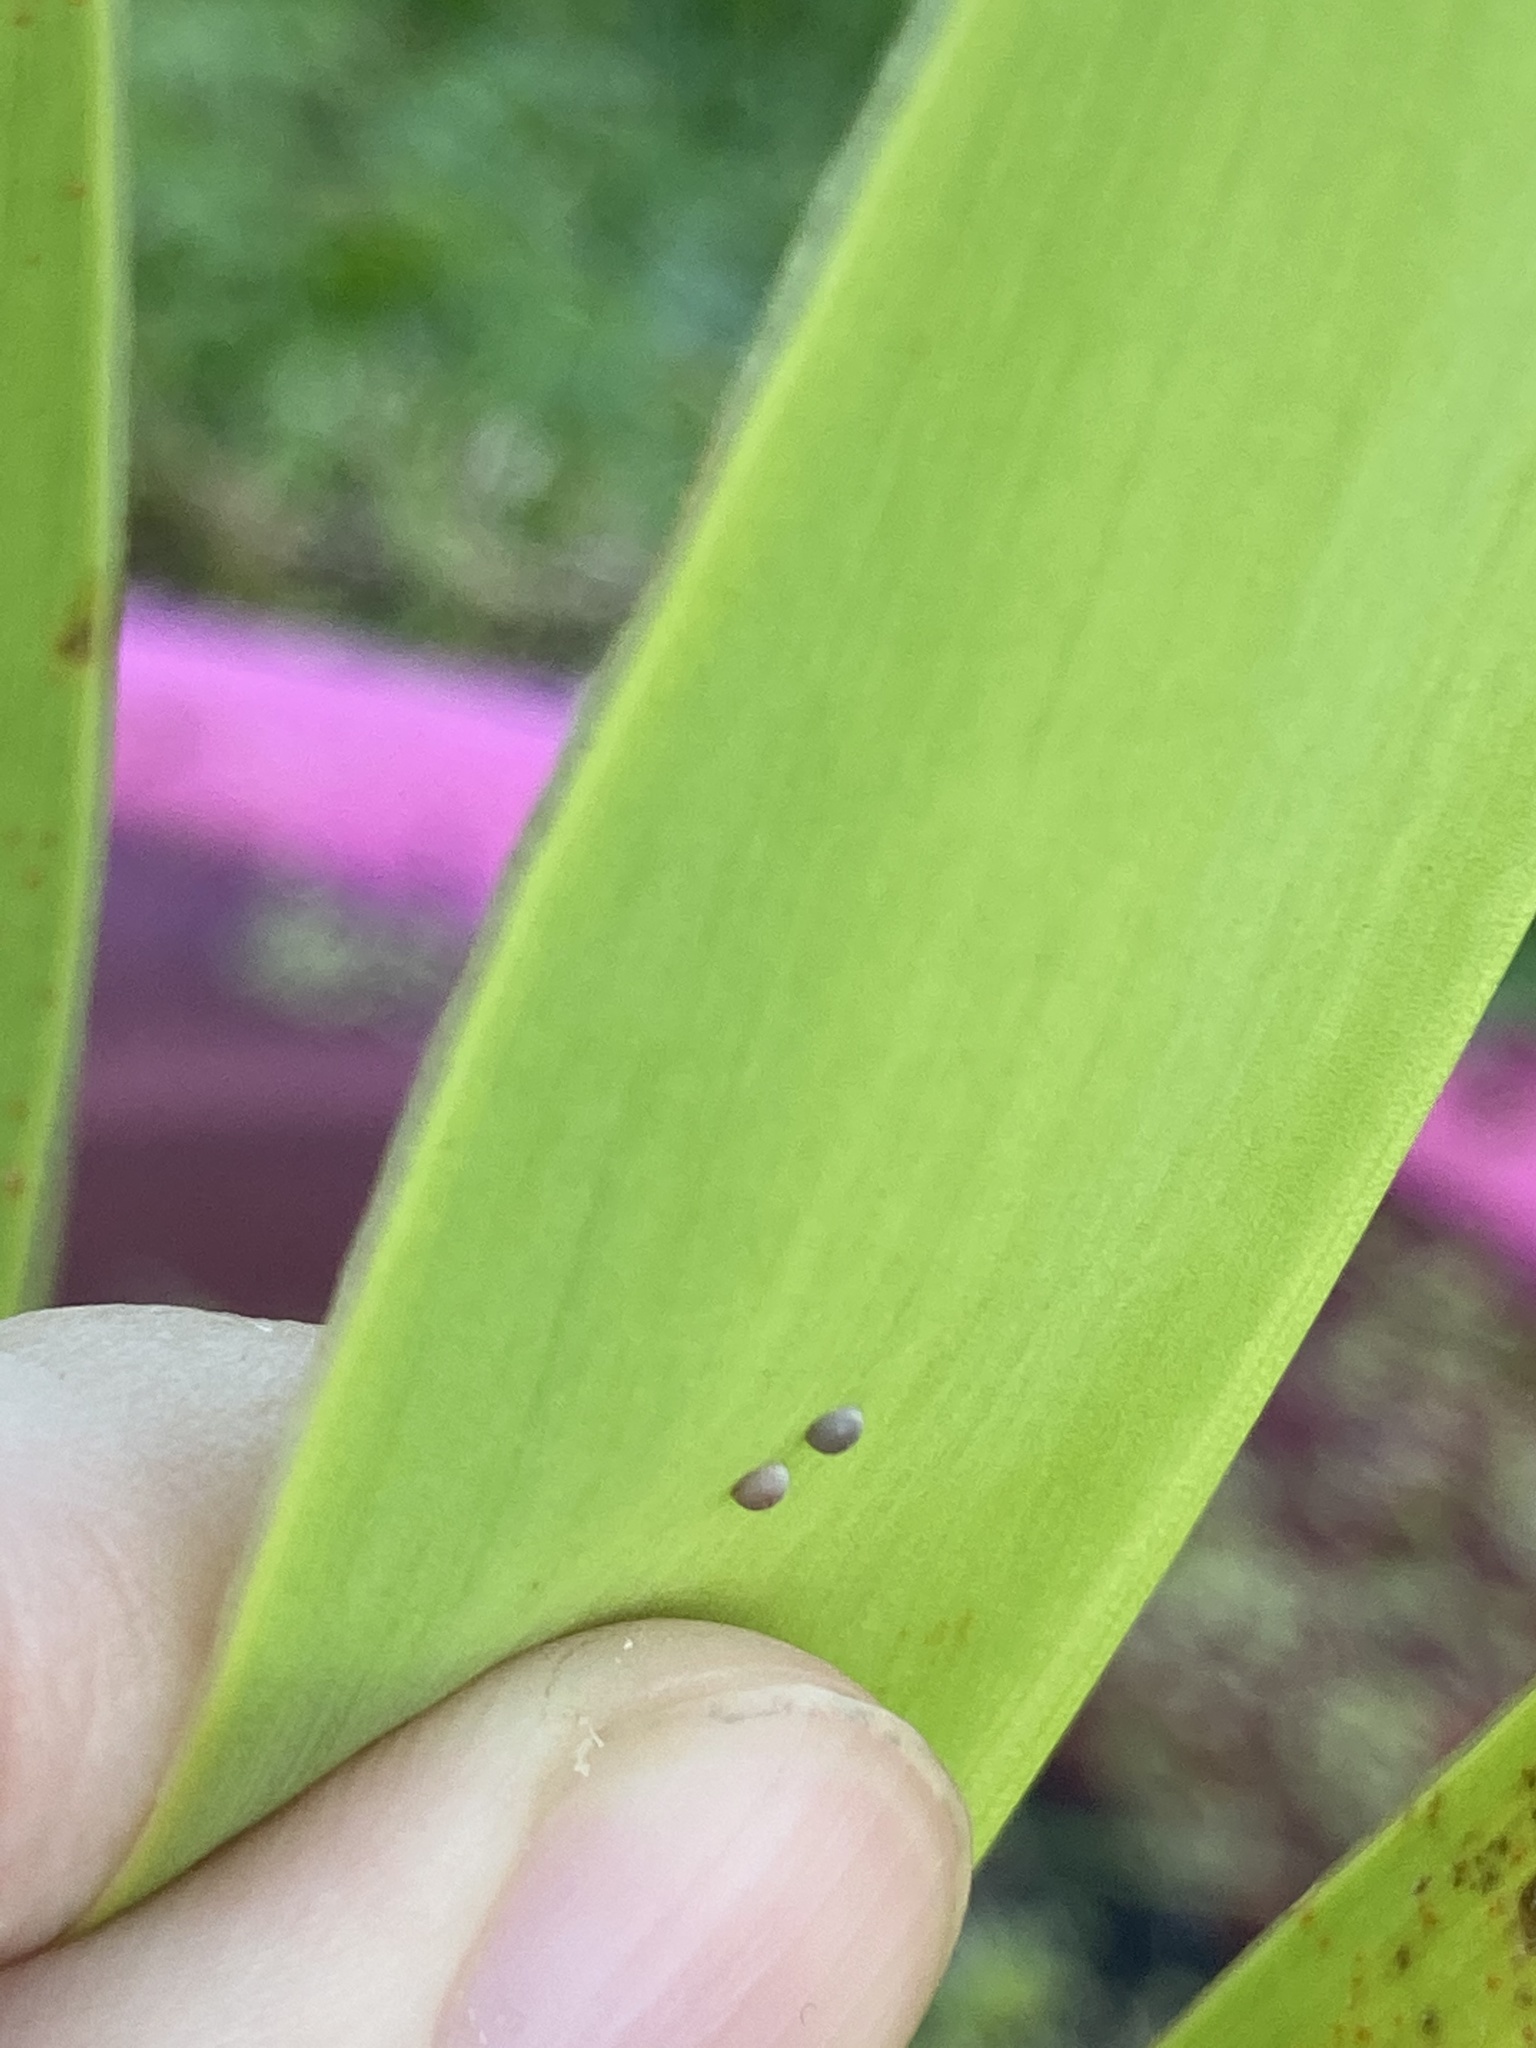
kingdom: Animalia
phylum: Arthropoda
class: Insecta
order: Lepidoptera
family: Hesperiidae
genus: Calpodes
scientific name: Calpodes ethlius
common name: Brazilian skipper
